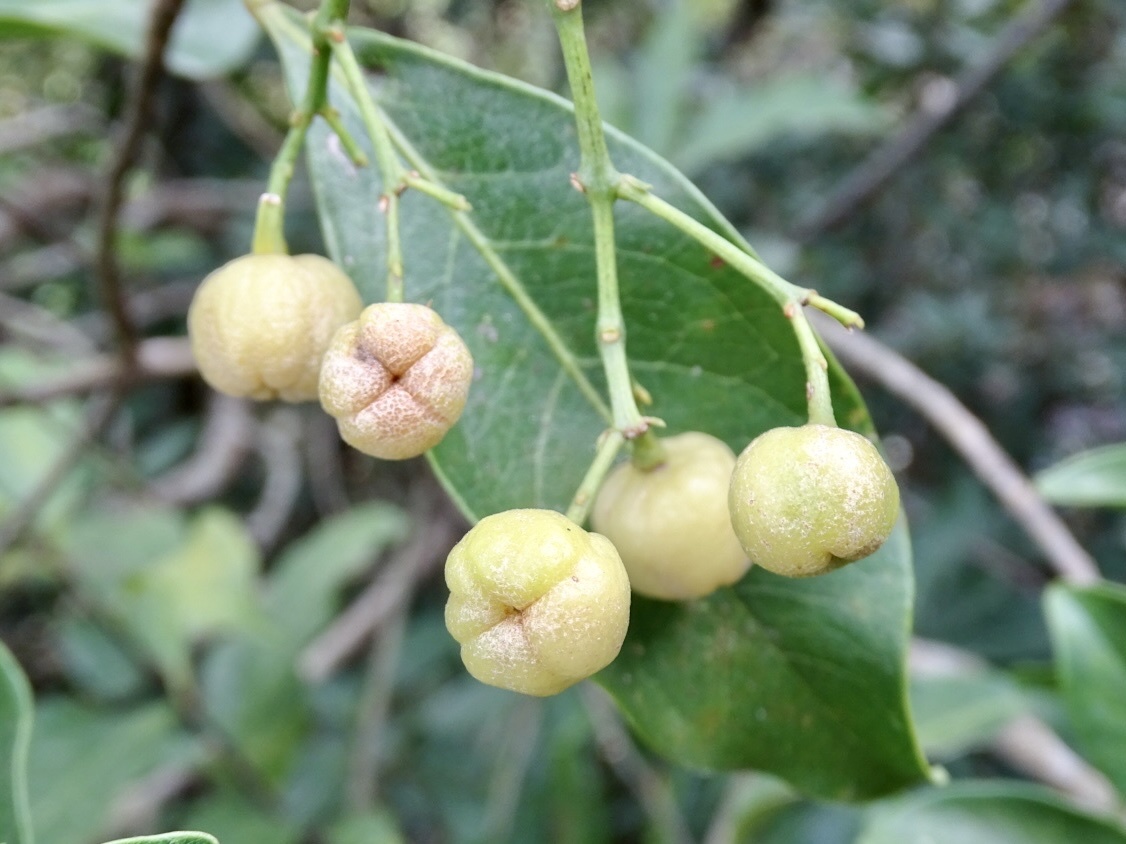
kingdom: Plantae
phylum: Tracheophyta
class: Magnoliopsida
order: Sapindales
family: Rutaceae
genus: Acronychia
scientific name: Acronychia pedunculata
